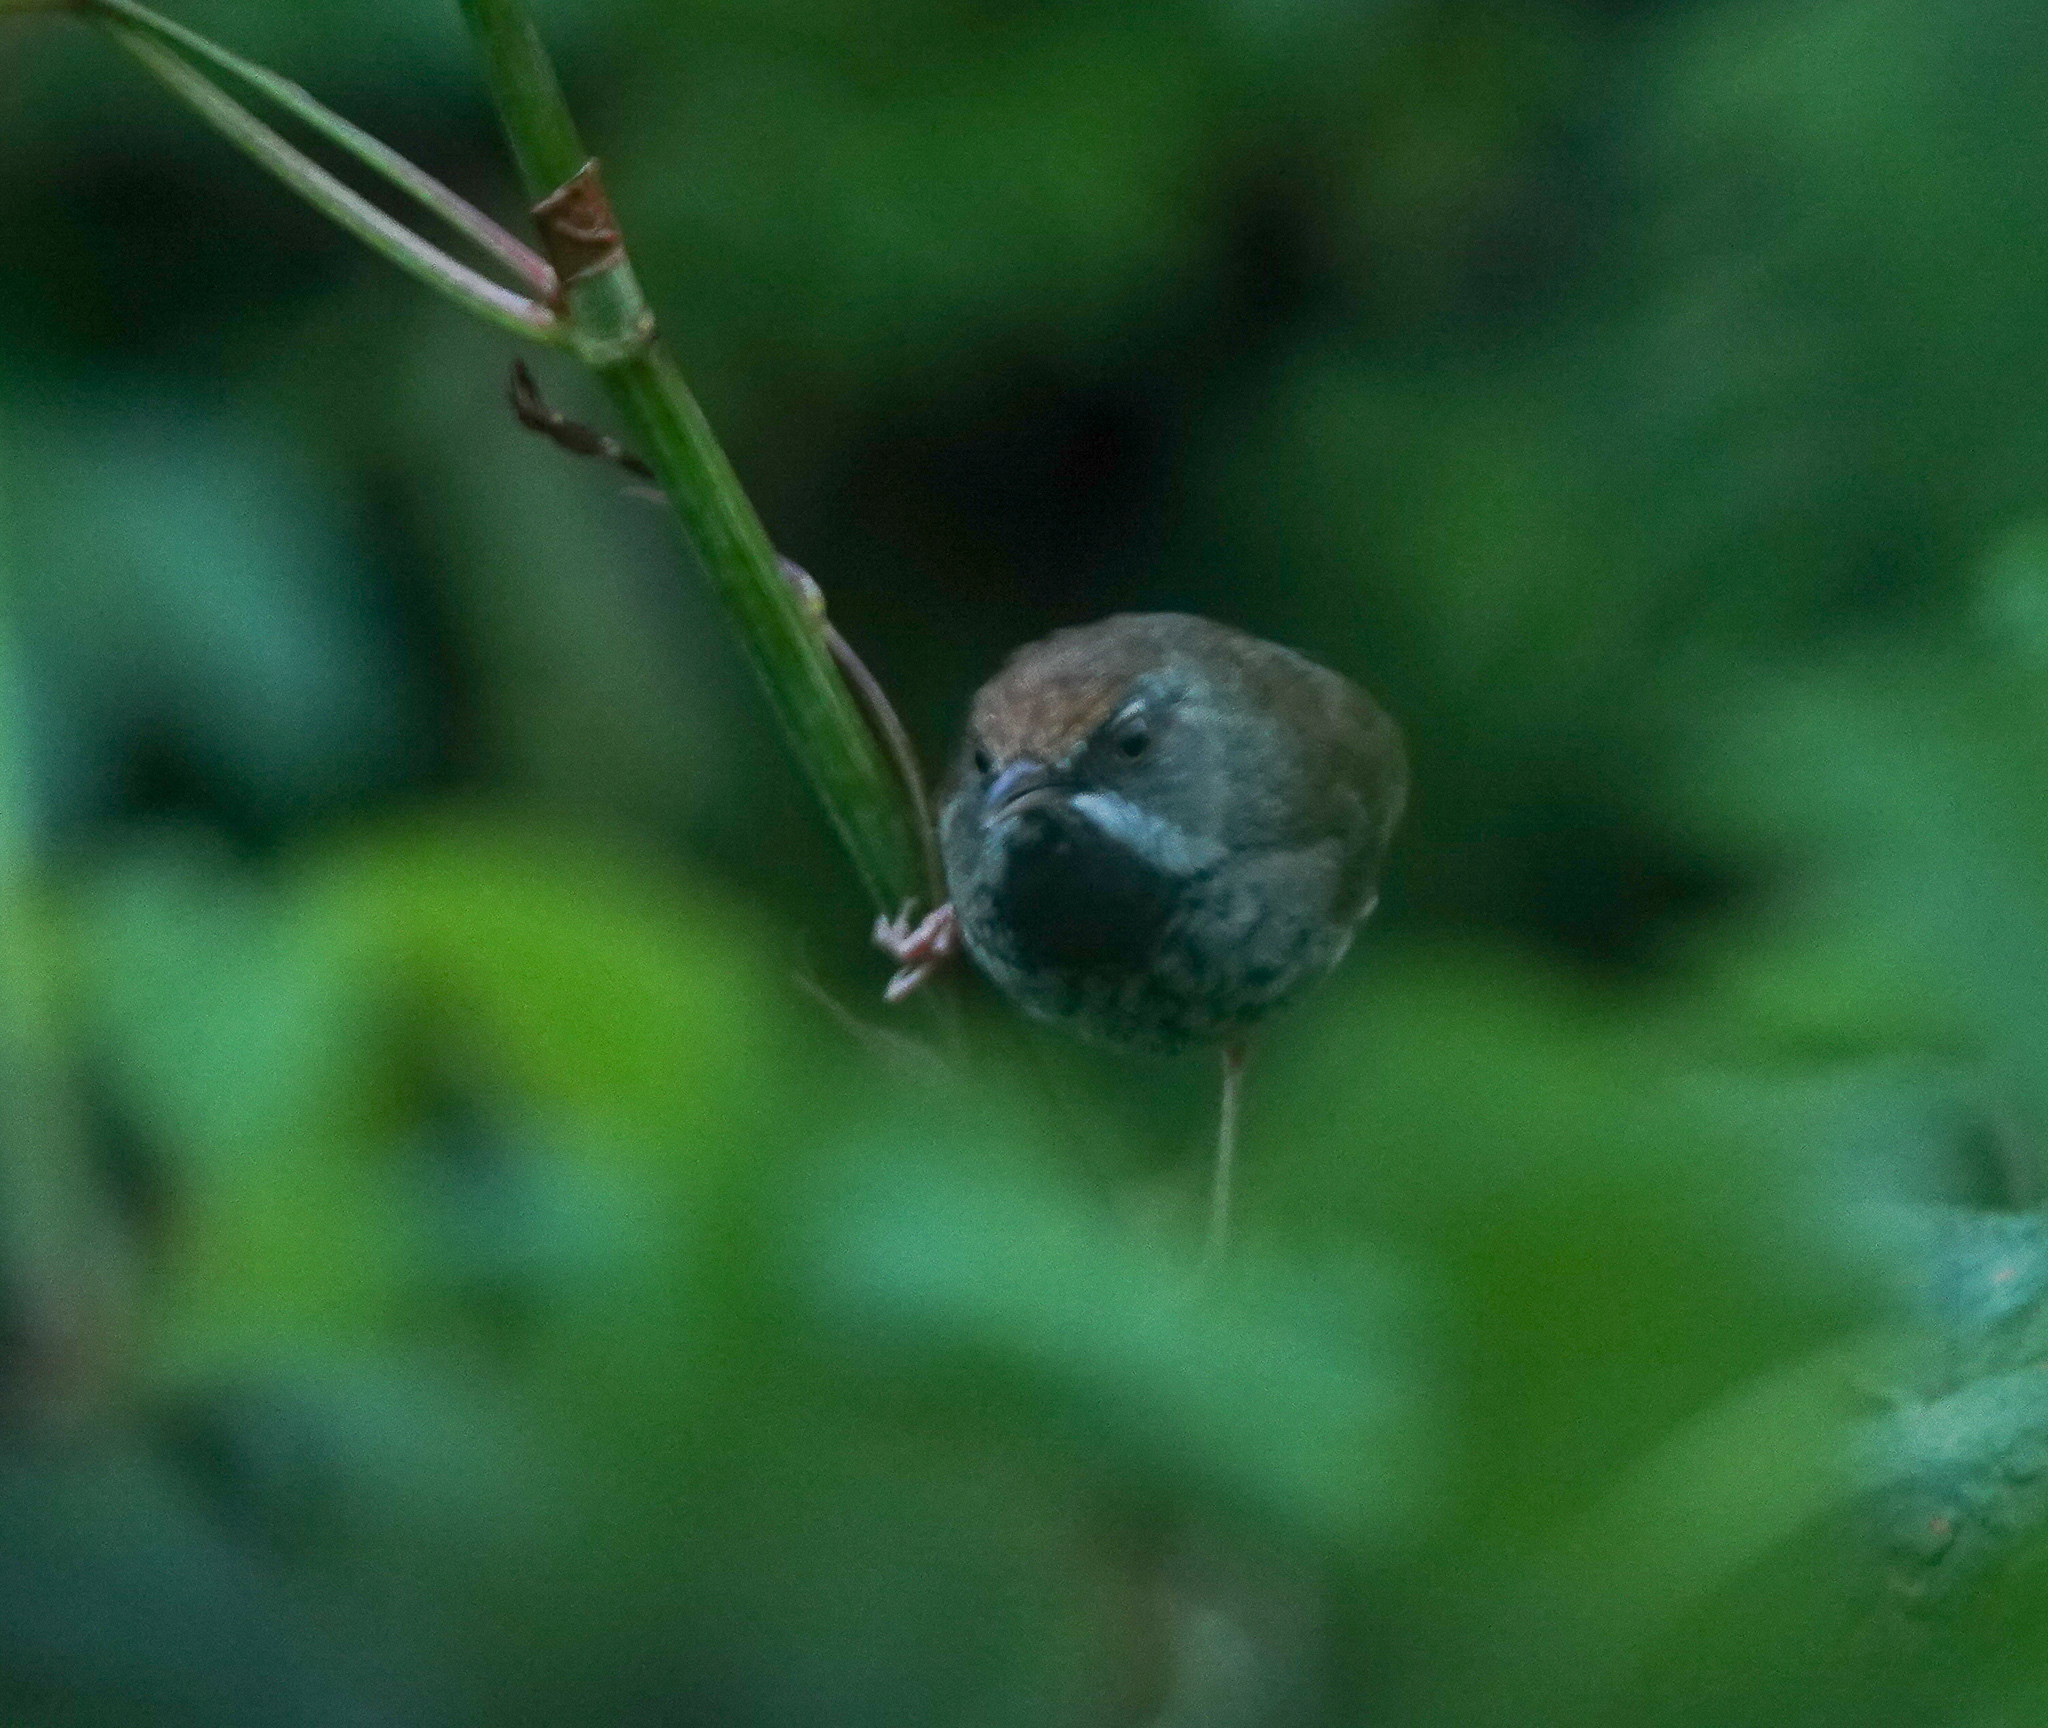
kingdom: Animalia
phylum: Chordata
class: Aves
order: Passeriformes
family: Cisticolidae
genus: Prinia
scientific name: Prinia atrogularis
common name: Black-throated prinia
